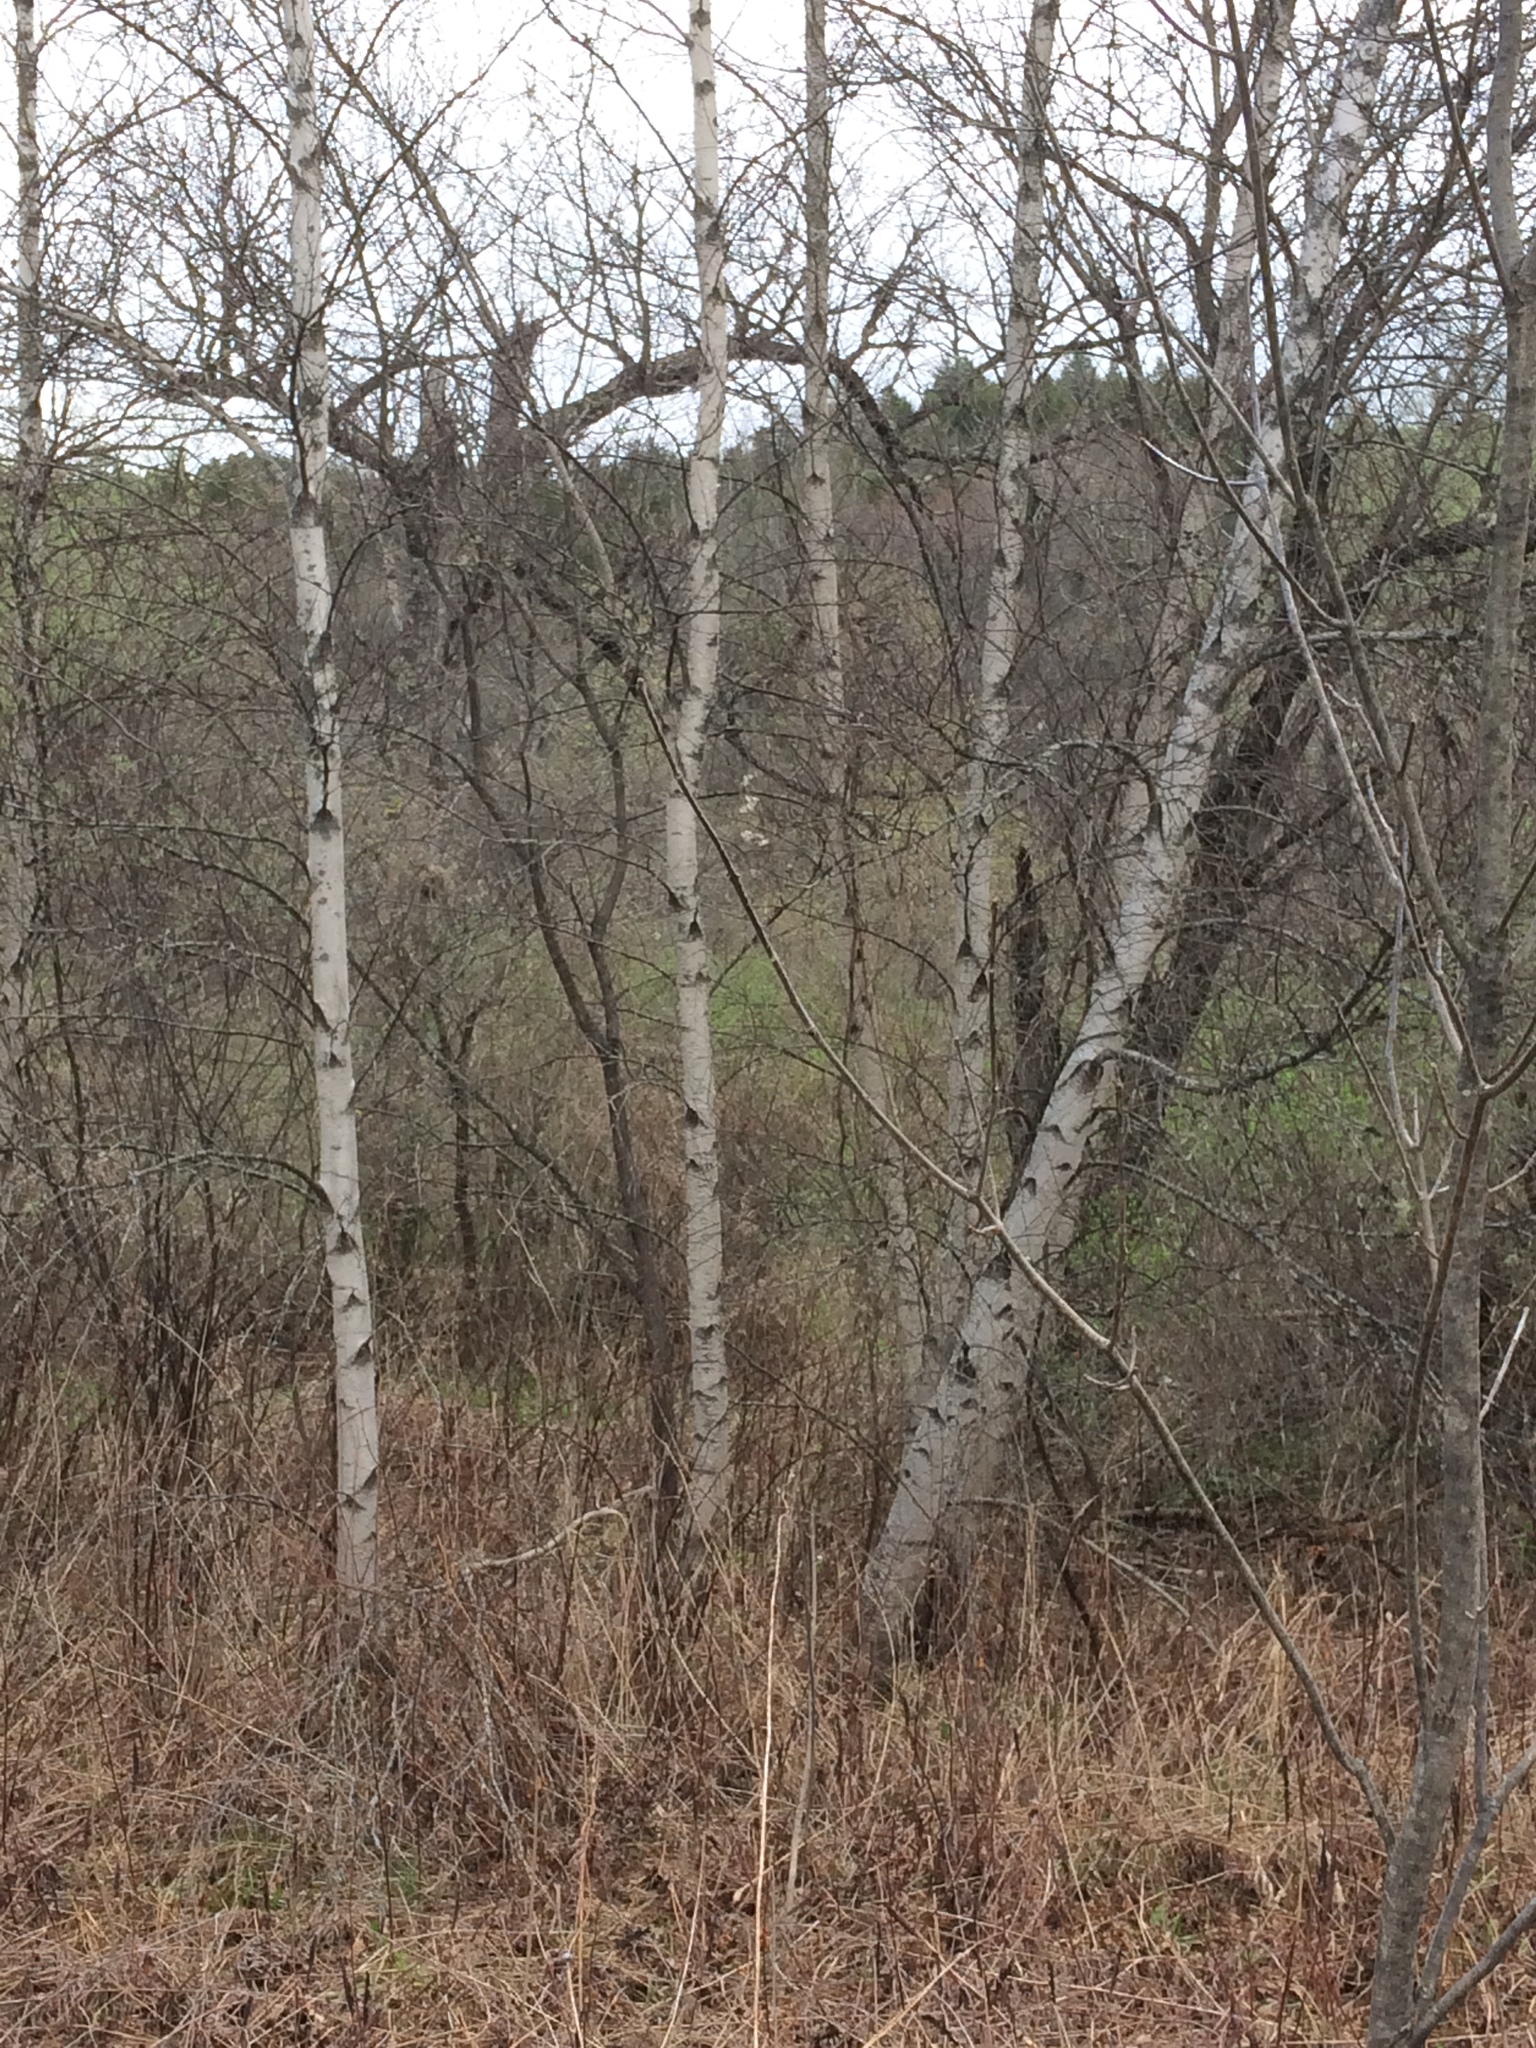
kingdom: Plantae
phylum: Tracheophyta
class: Magnoliopsida
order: Fagales
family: Betulaceae
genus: Betula
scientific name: Betula populifolia
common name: Fire birch
